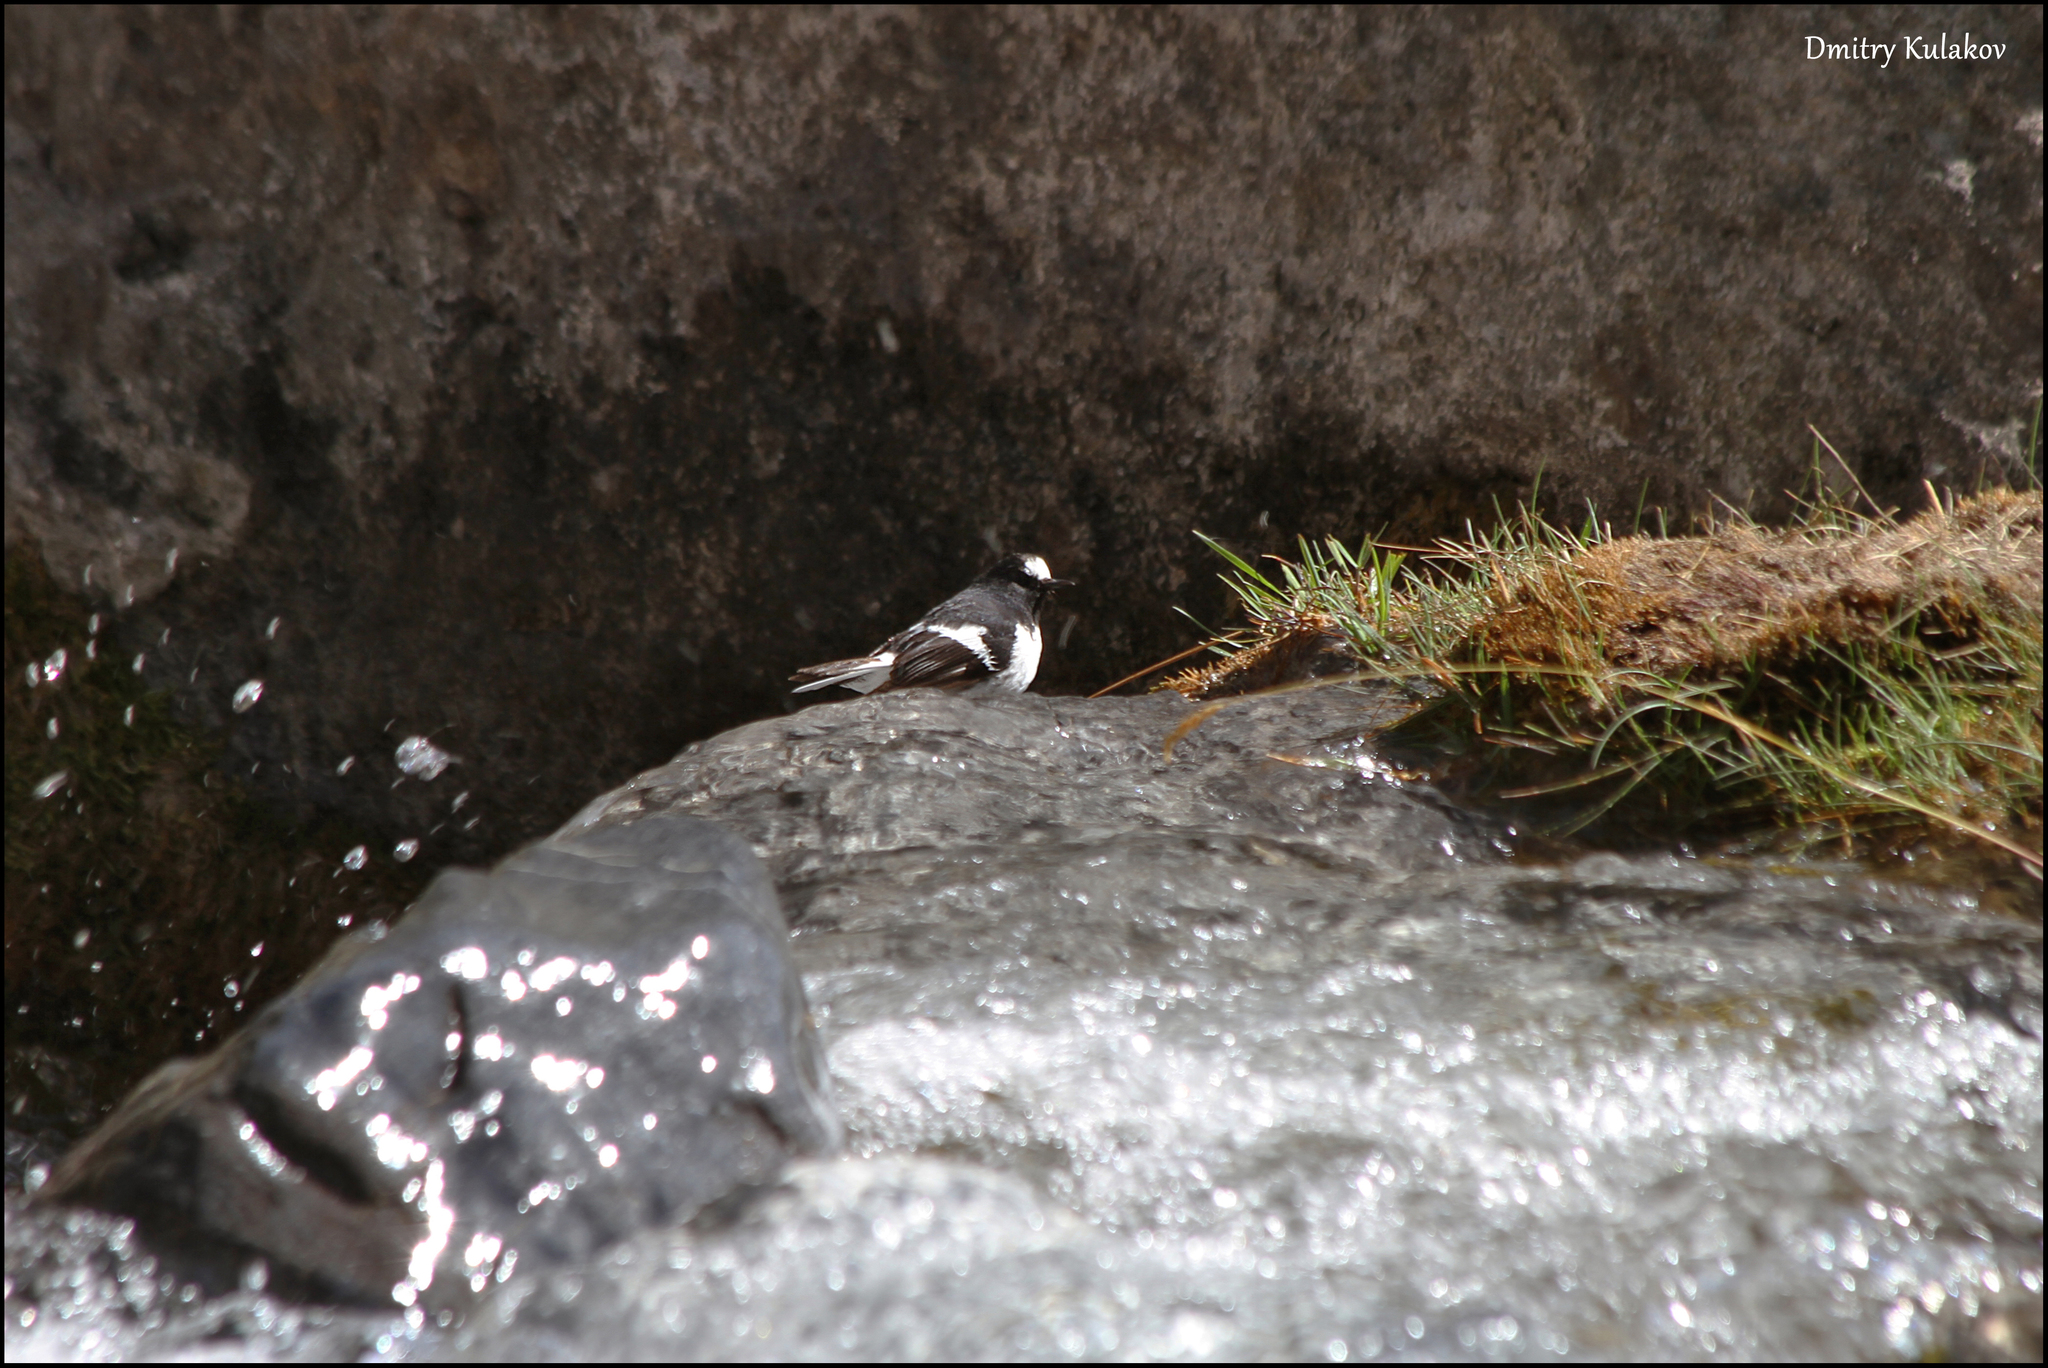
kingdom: Animalia
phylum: Chordata
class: Aves
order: Passeriformes
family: Muscicapidae
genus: Enicurus
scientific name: Enicurus scouleri
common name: Little forktail
